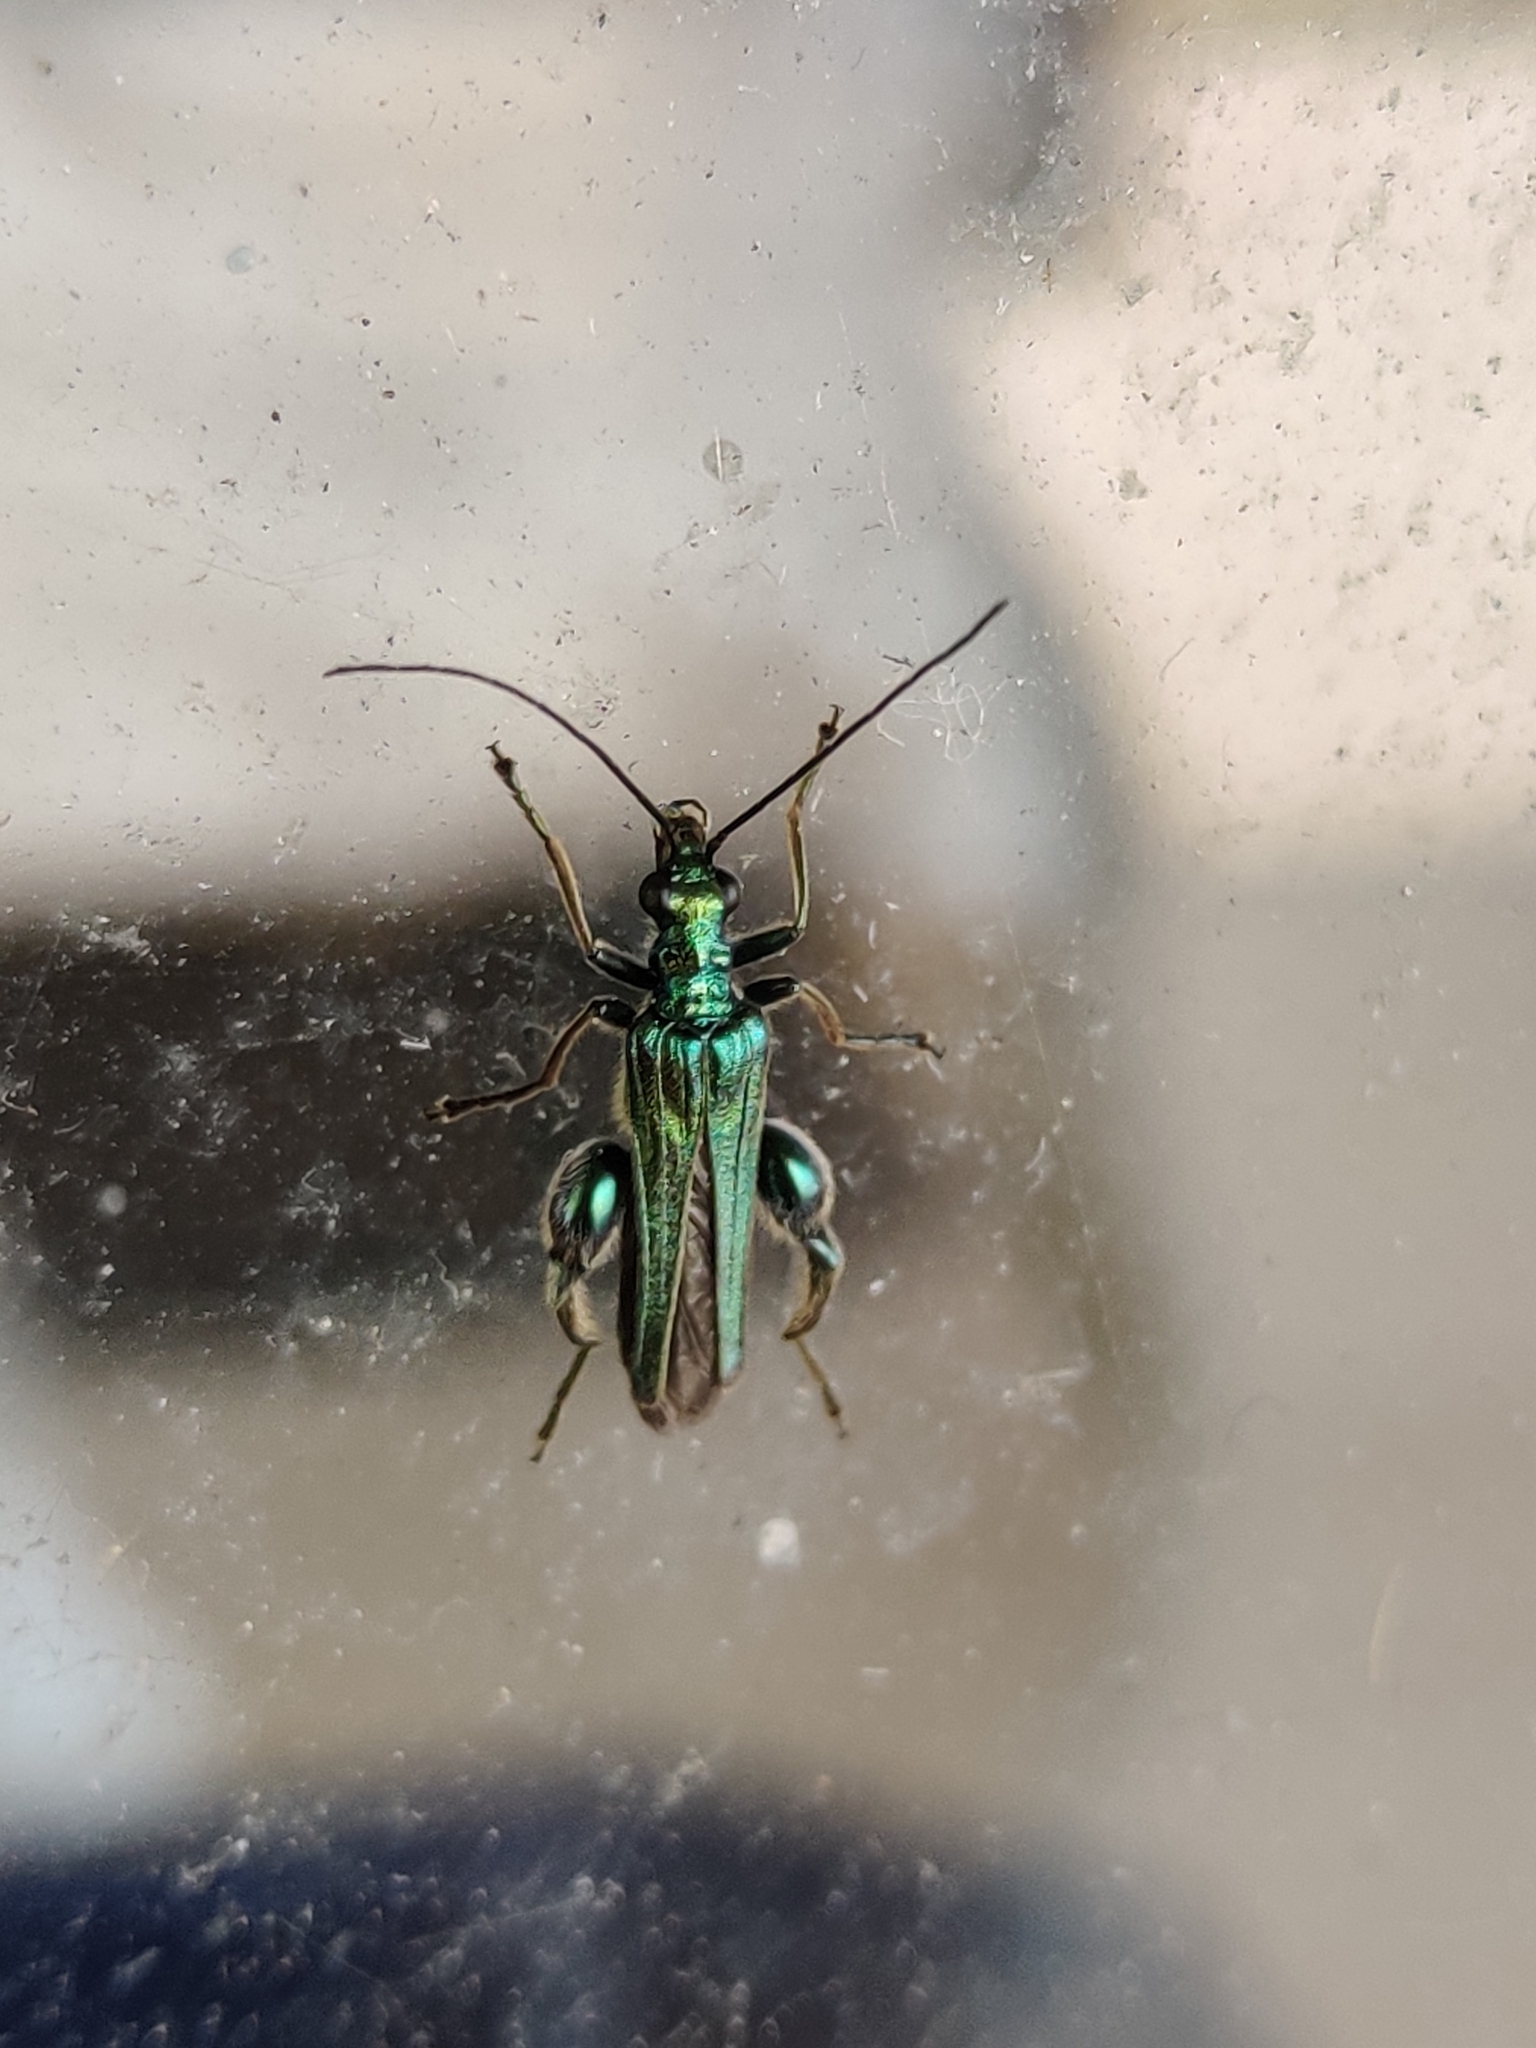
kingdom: Animalia
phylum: Arthropoda
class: Insecta
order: Coleoptera
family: Oedemeridae
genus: Oedemera
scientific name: Oedemera nobilis
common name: Swollen-thighed beetle
